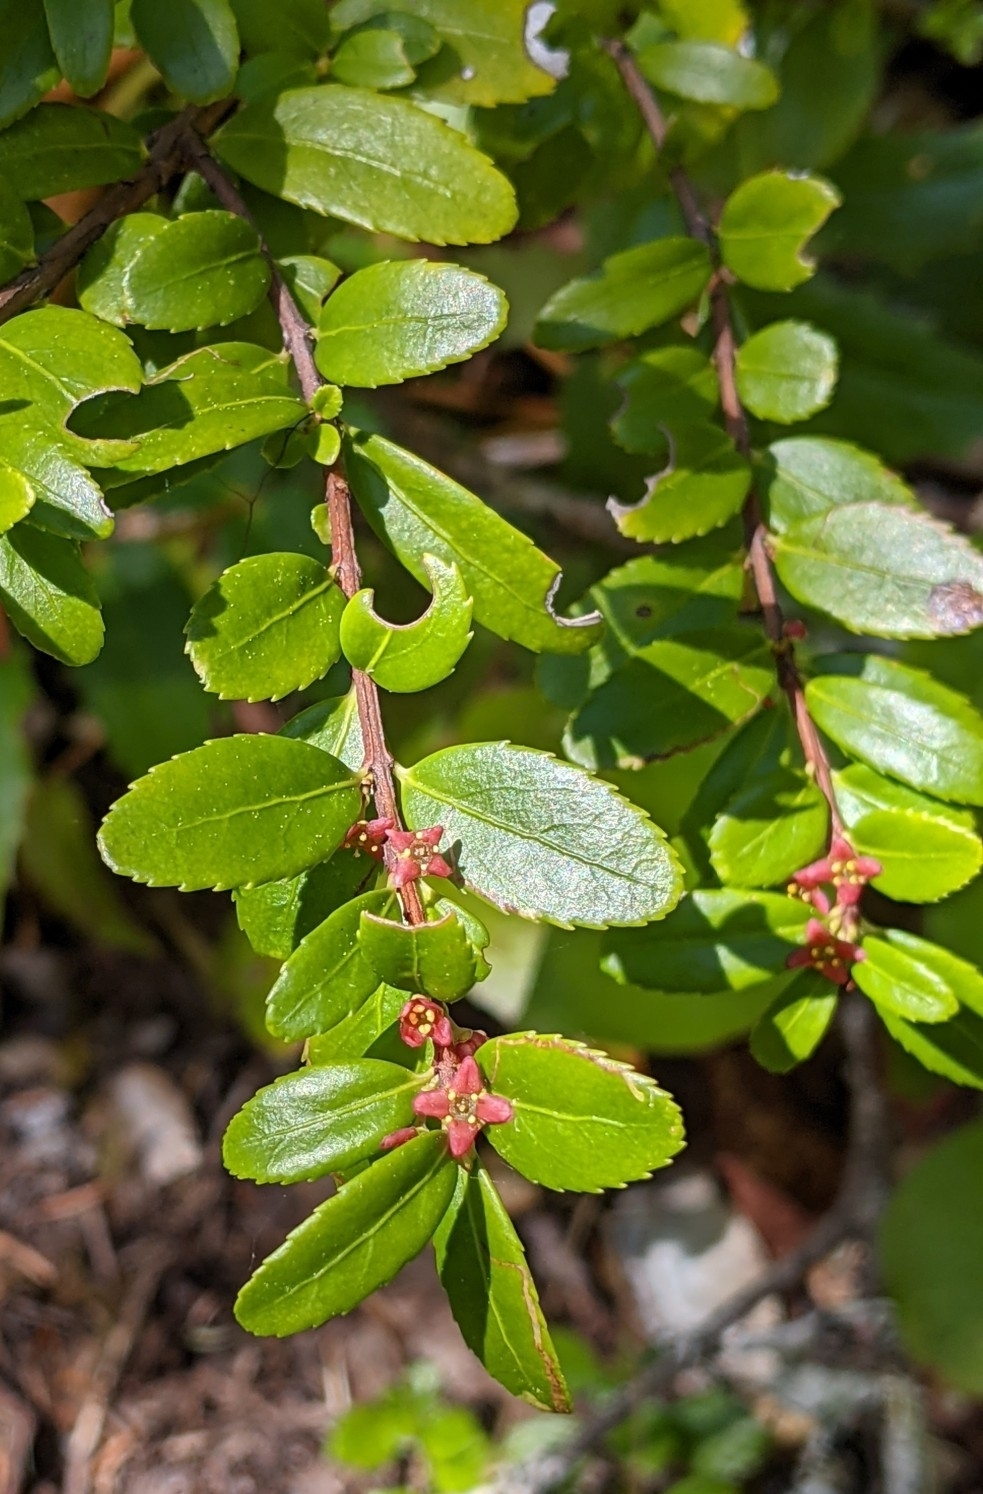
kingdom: Plantae
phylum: Tracheophyta
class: Magnoliopsida
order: Celastrales
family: Celastraceae
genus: Paxistima
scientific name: Paxistima myrsinites
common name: Mountain-lover
